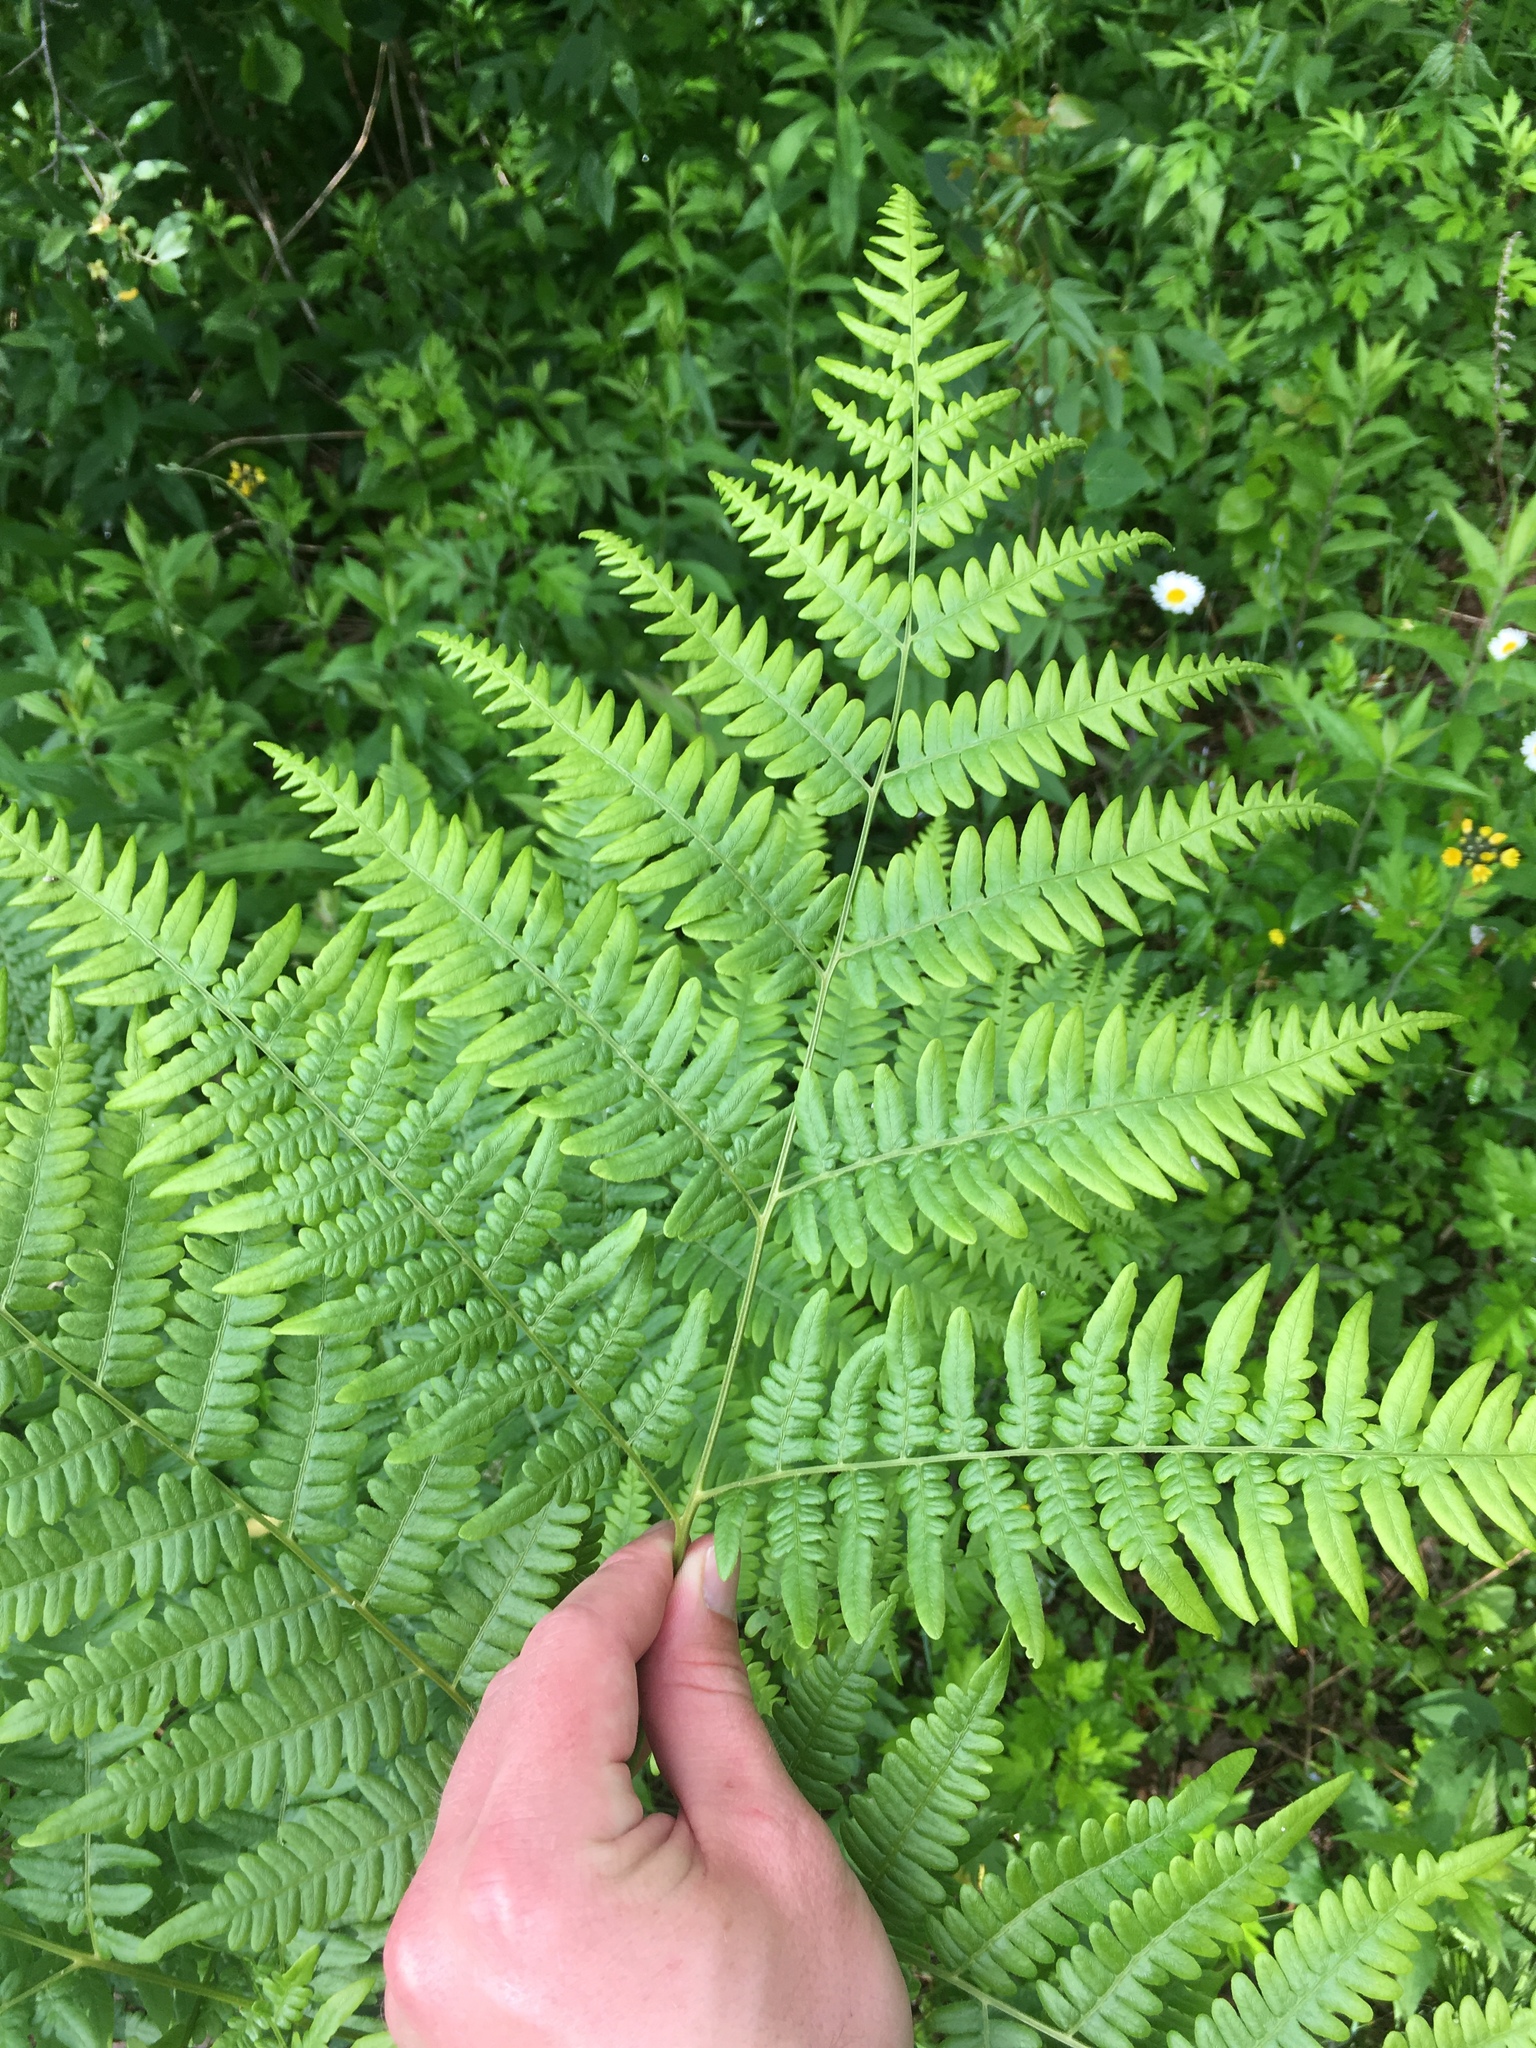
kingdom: Plantae
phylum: Tracheophyta
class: Polypodiopsida
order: Polypodiales
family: Dennstaedtiaceae
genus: Pteridium
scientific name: Pteridium aquilinum
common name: Bracken
